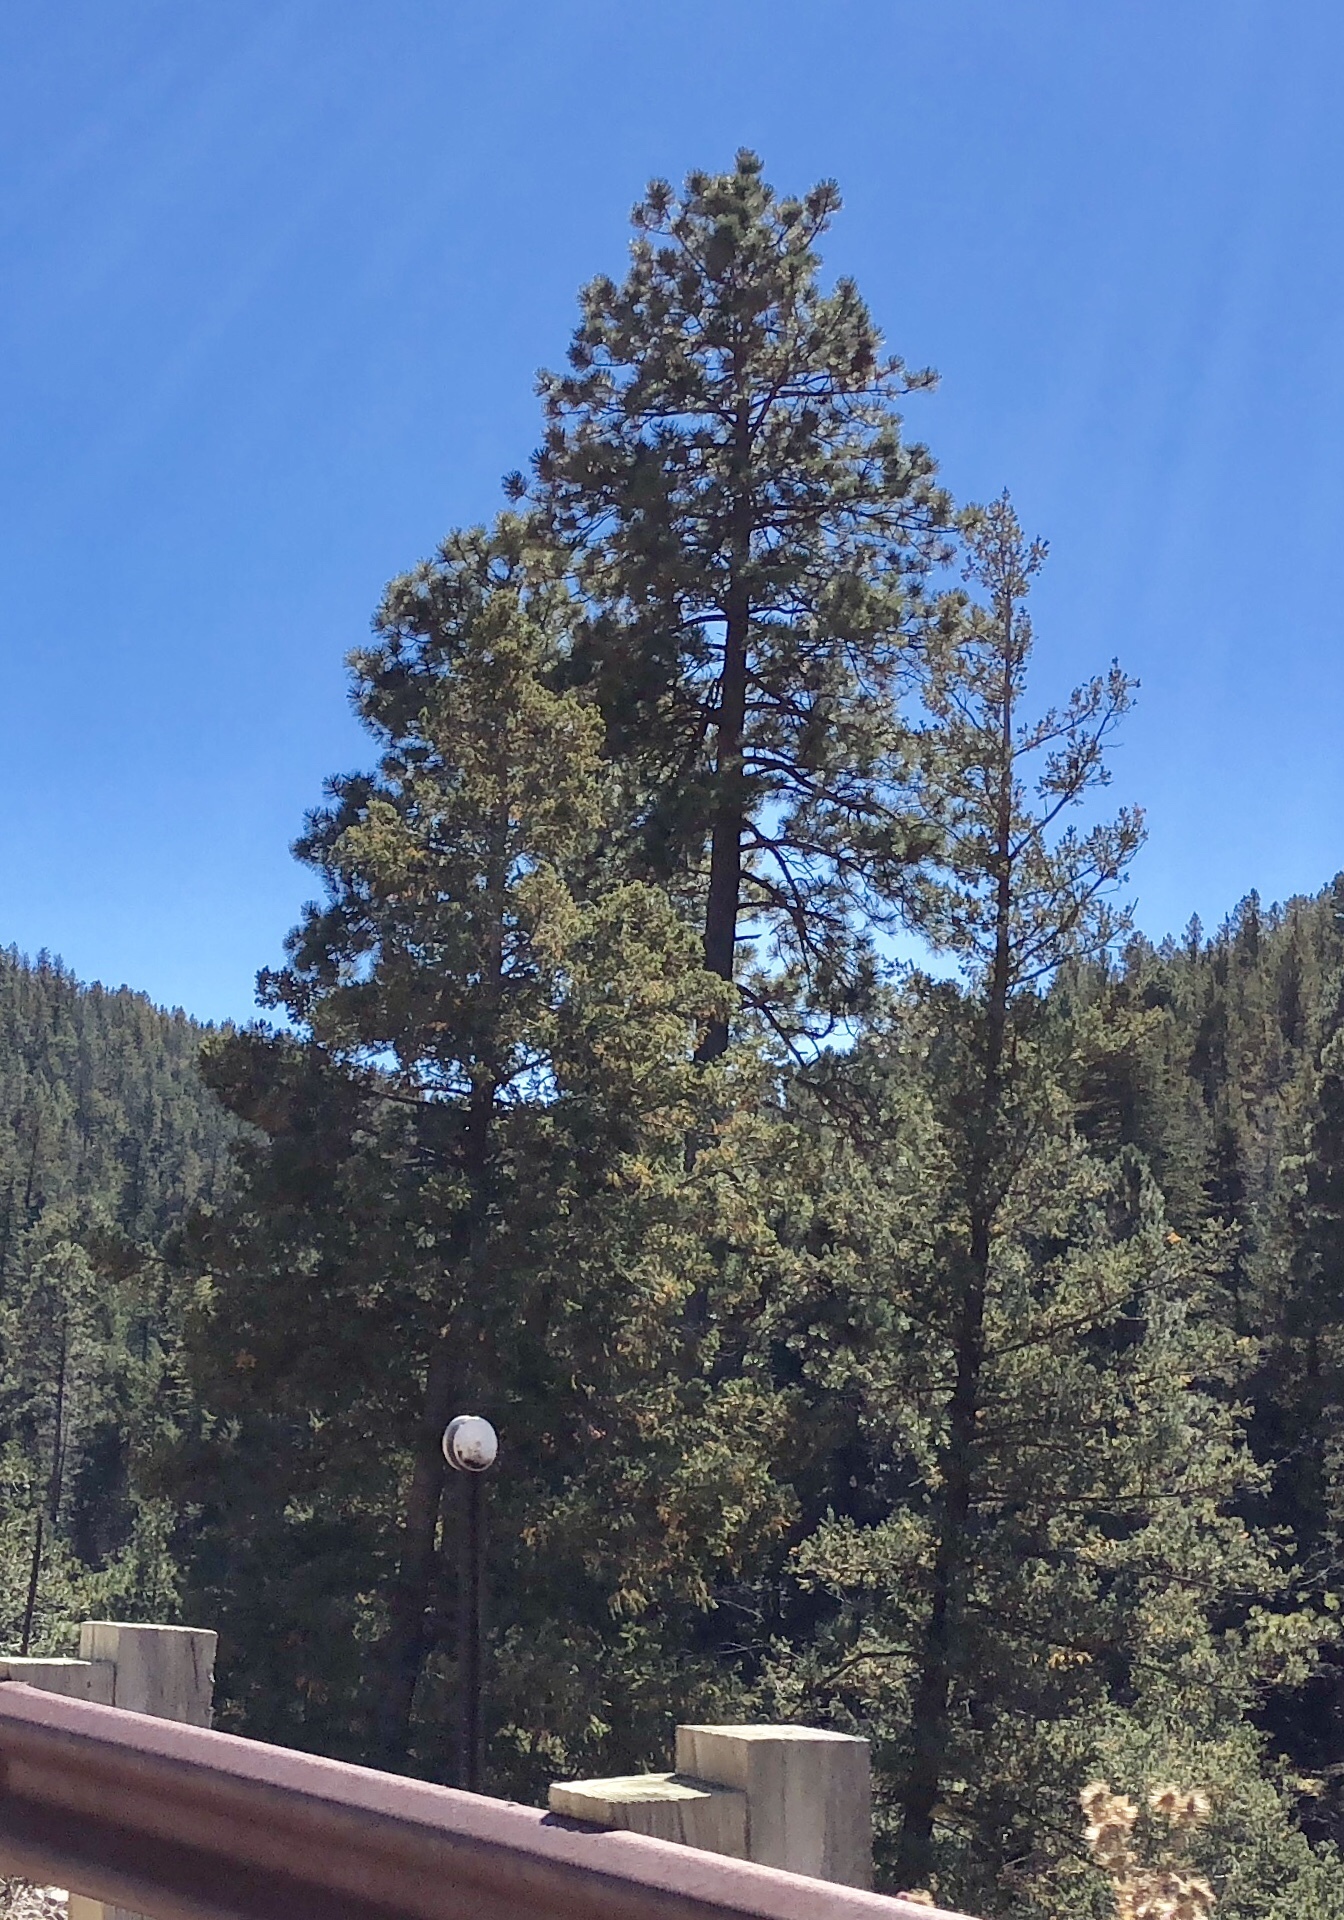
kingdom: Plantae
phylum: Tracheophyta
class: Pinopsida
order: Pinales
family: Pinaceae
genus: Pinus
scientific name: Pinus ponderosa
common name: Western yellow-pine
